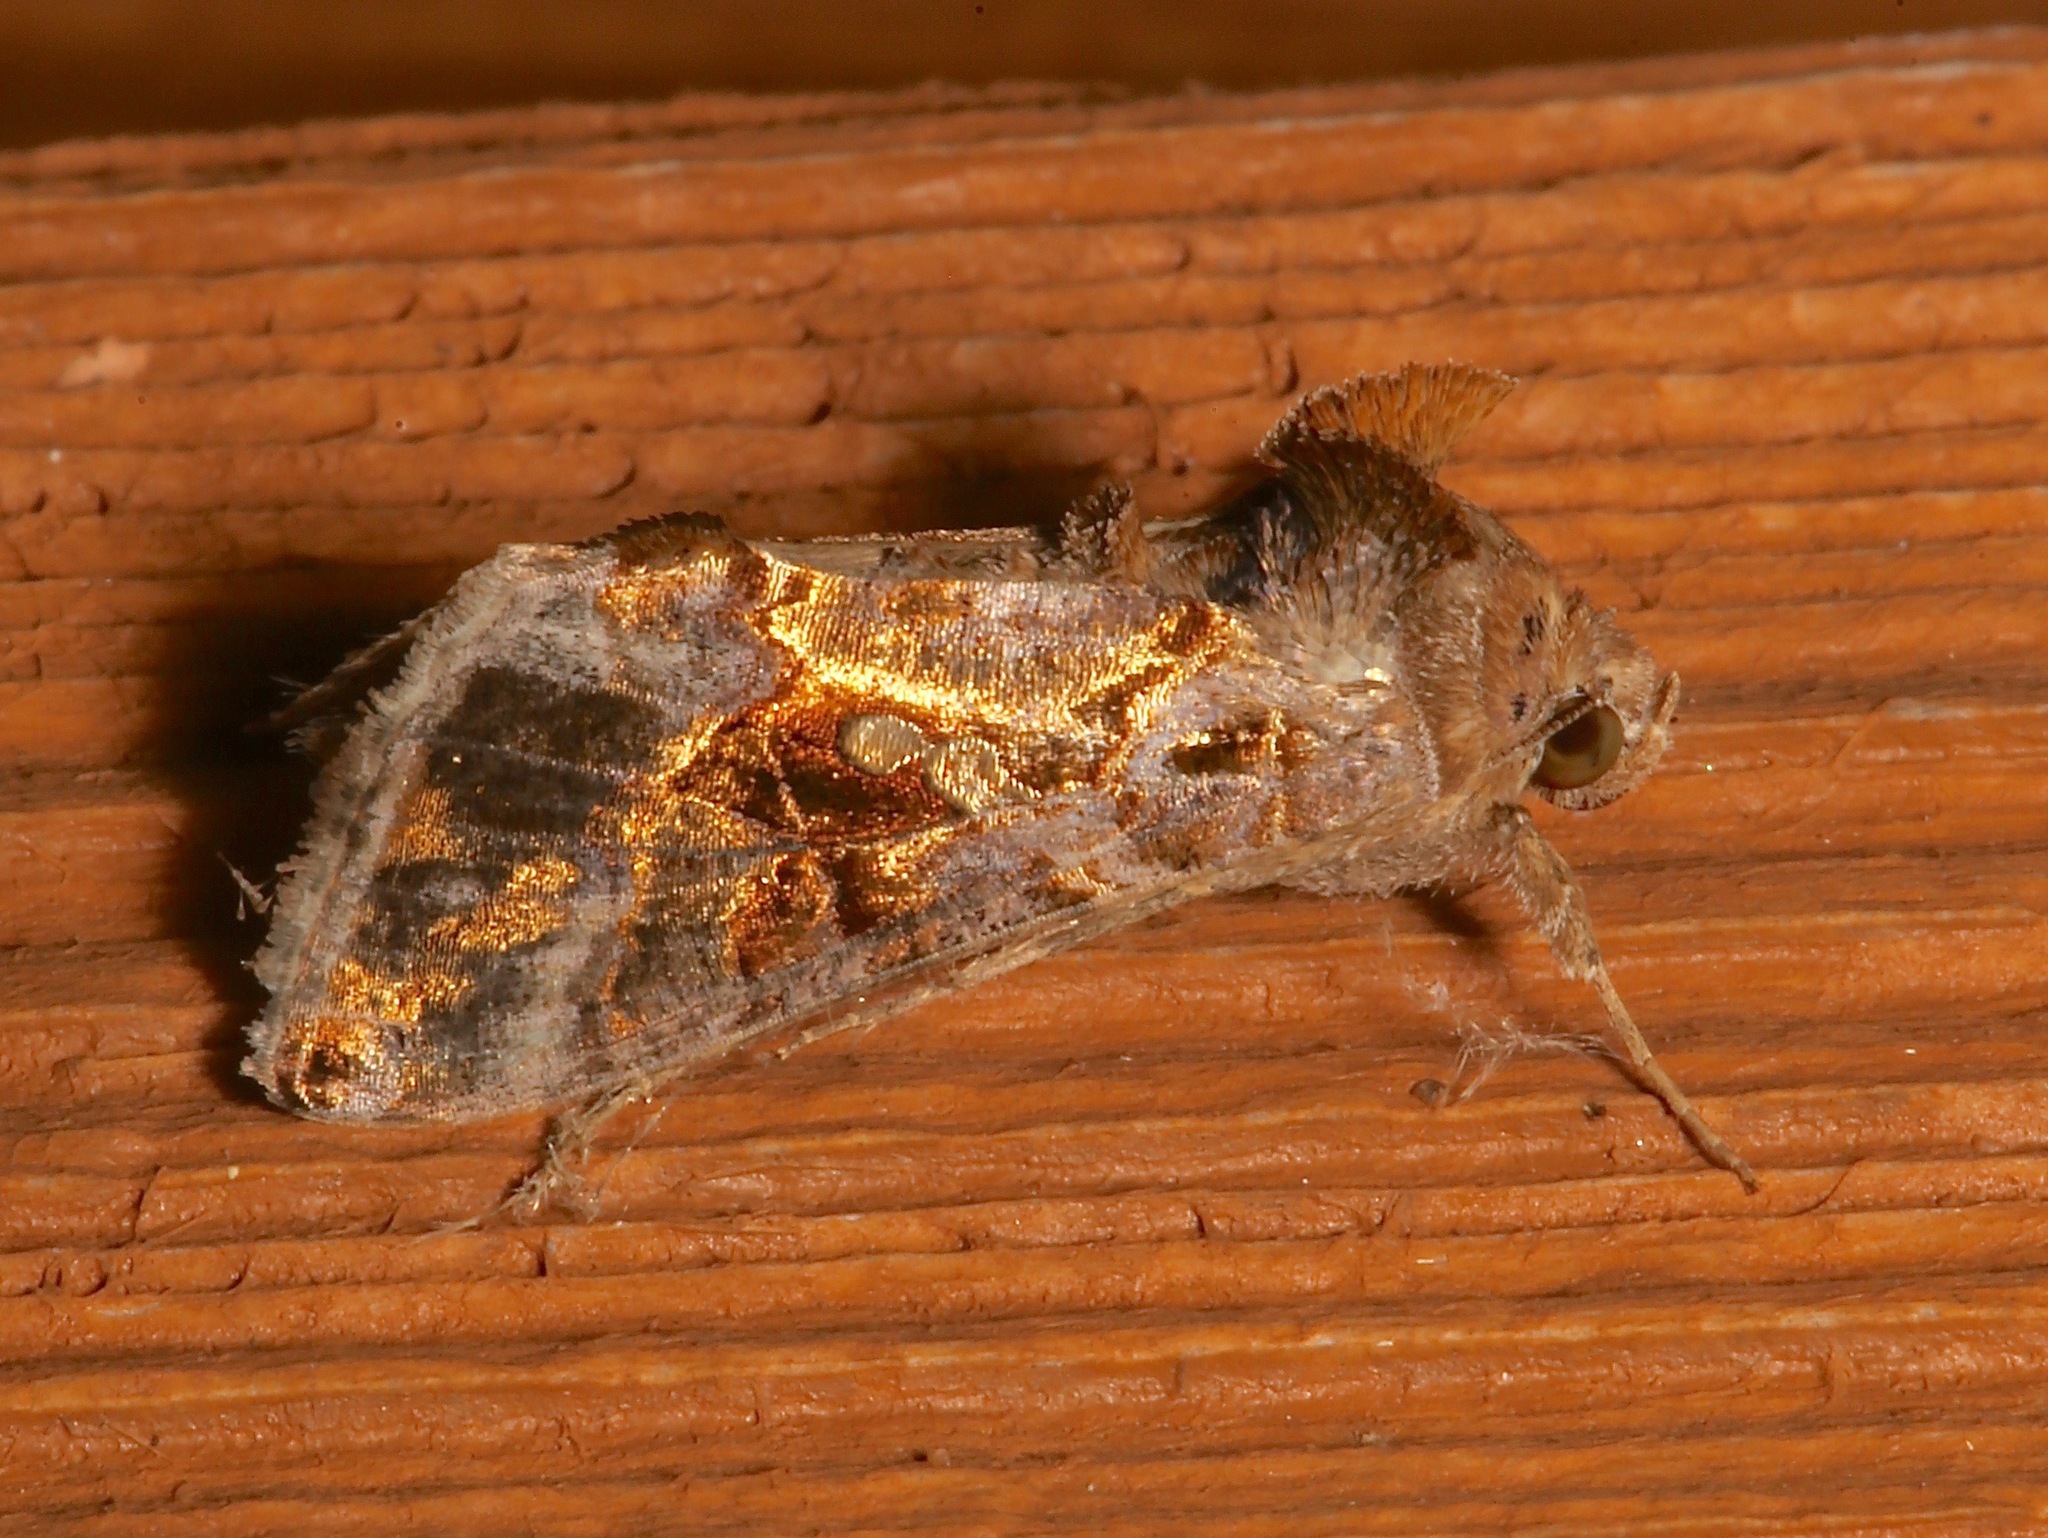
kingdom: Animalia
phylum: Arthropoda
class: Insecta
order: Lepidoptera
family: Noctuidae
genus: Chrysodeixis
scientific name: Chrysodeixis includens
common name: Cutworm moth
